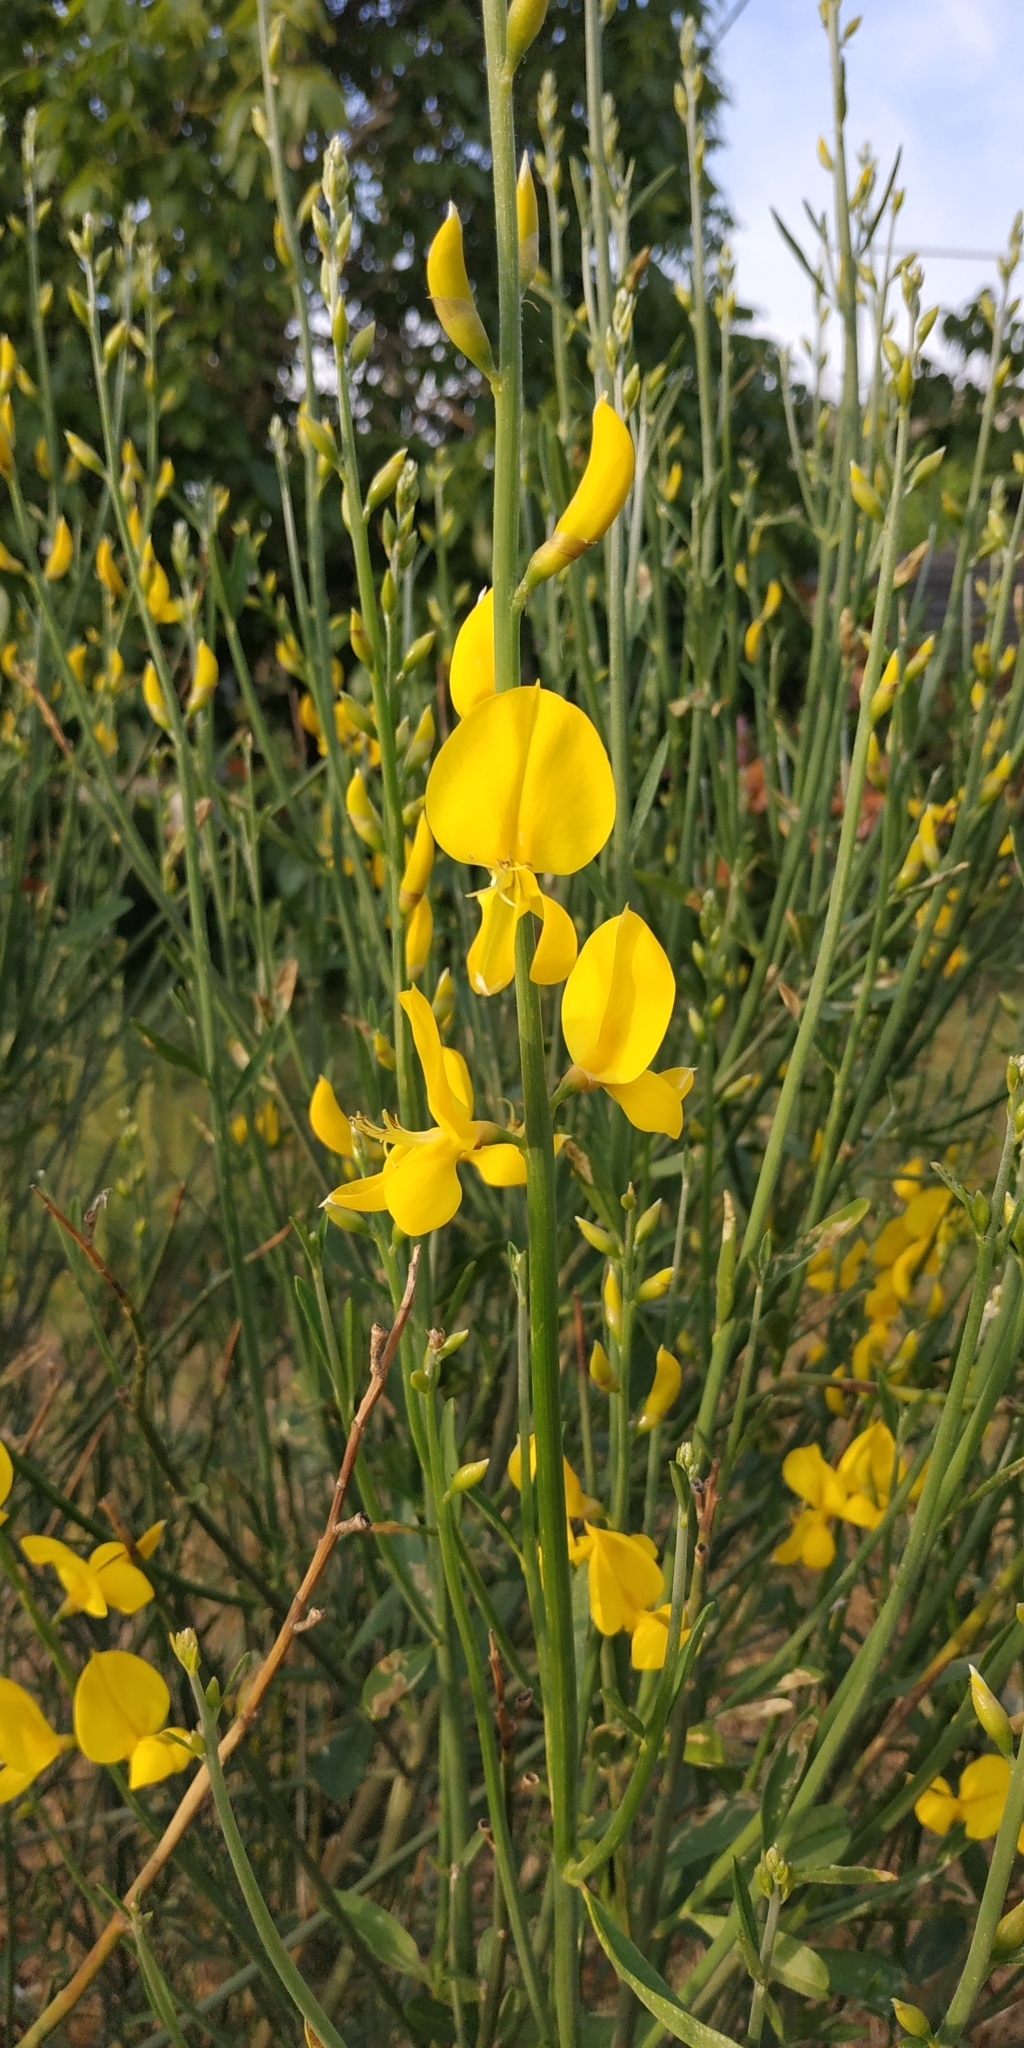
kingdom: Plantae
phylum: Tracheophyta
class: Magnoliopsida
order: Fabales
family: Fabaceae
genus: Spartium
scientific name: Spartium junceum
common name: Spanish broom
